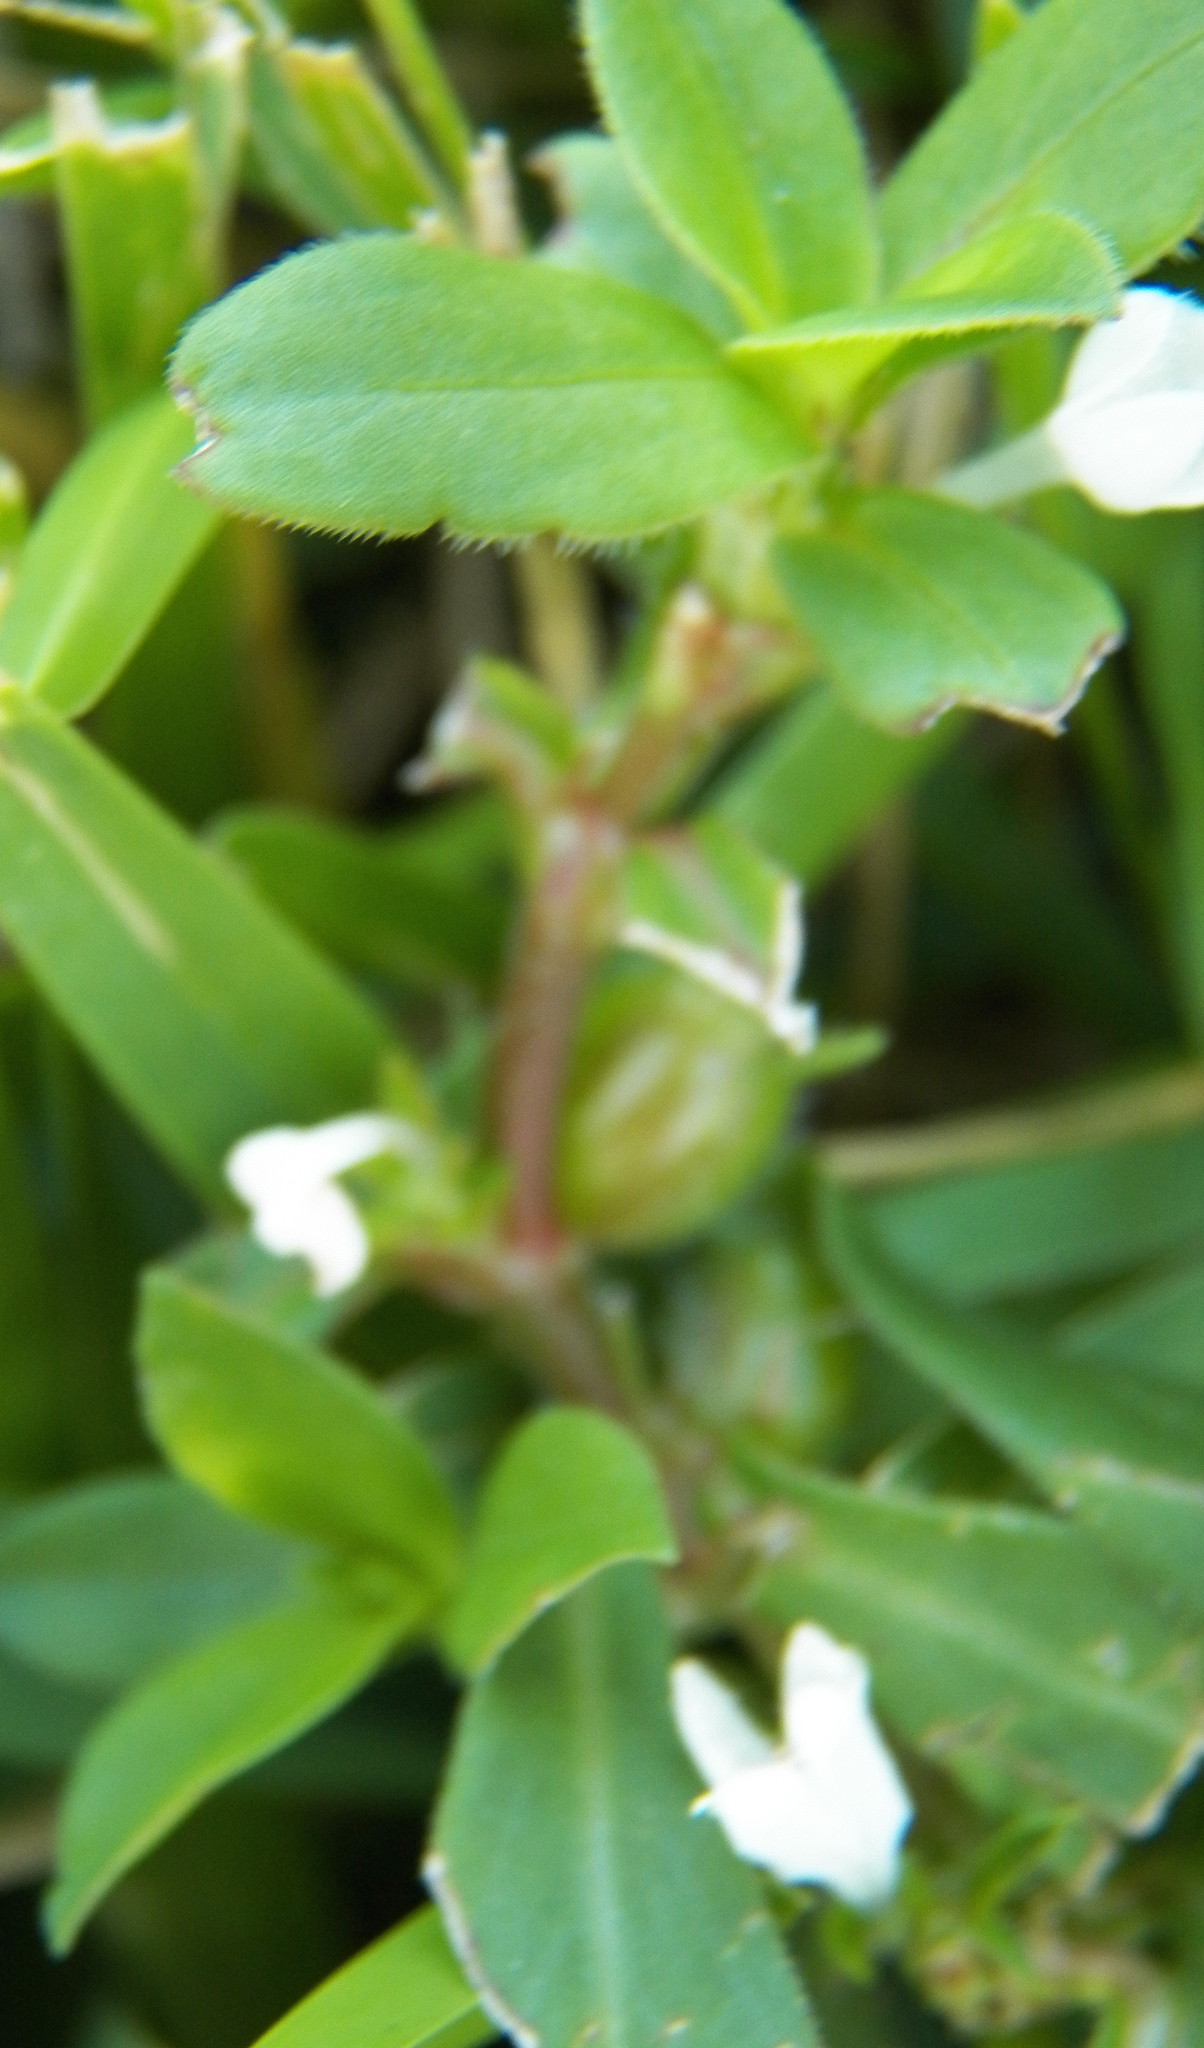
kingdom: Plantae
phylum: Tracheophyta
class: Magnoliopsida
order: Gentianales
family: Rubiaceae
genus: Diodia
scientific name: Diodia virginiana
